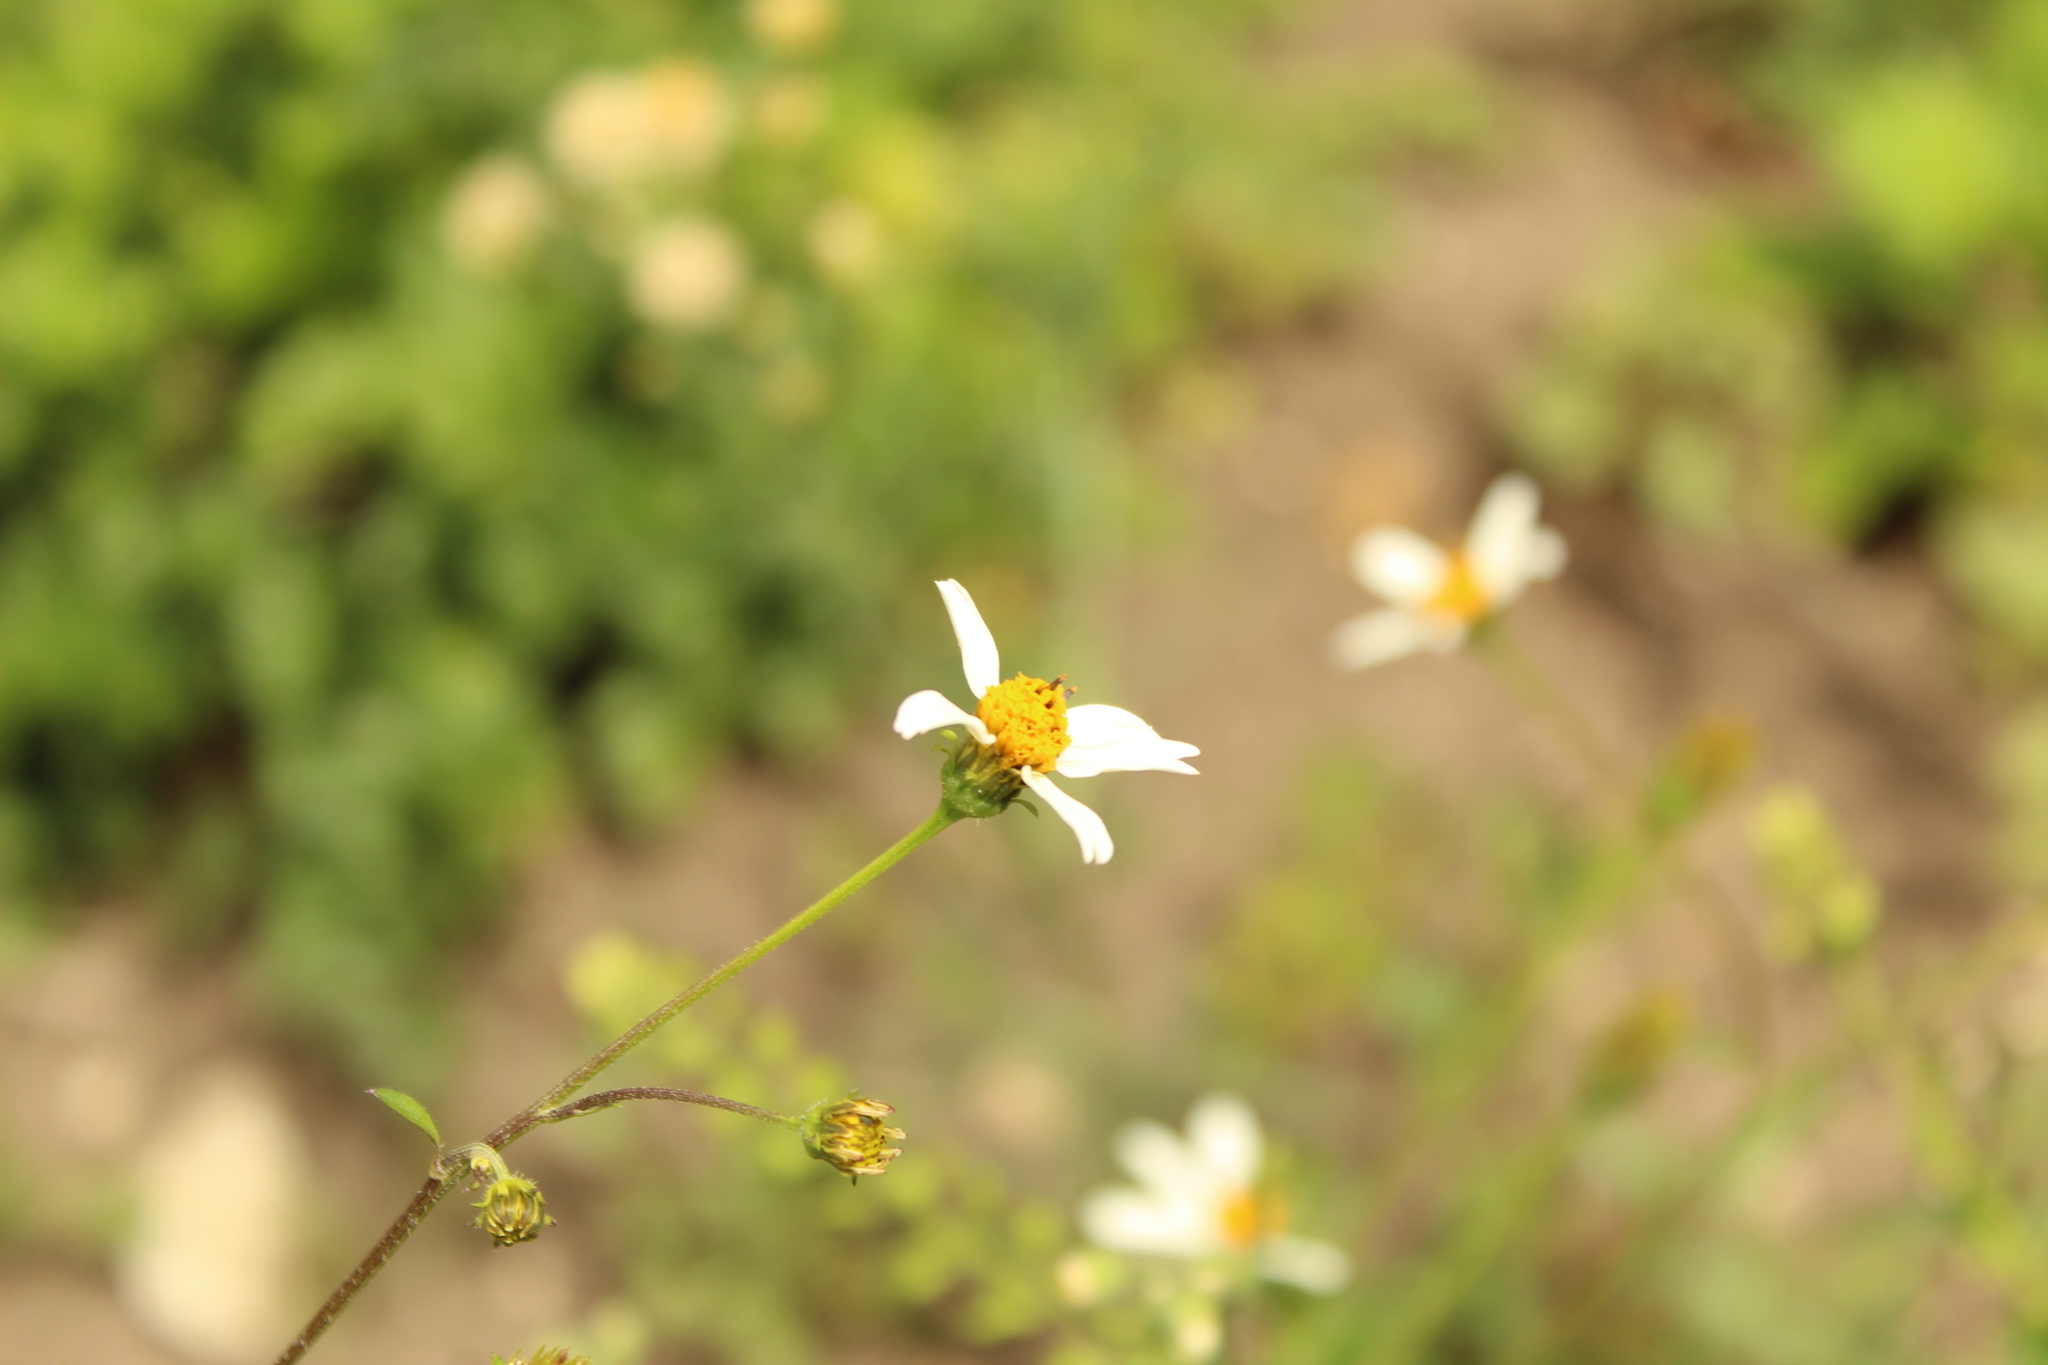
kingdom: Plantae
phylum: Tracheophyta
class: Magnoliopsida
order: Asterales
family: Asteraceae
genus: Bidens
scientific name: Bidens alba
